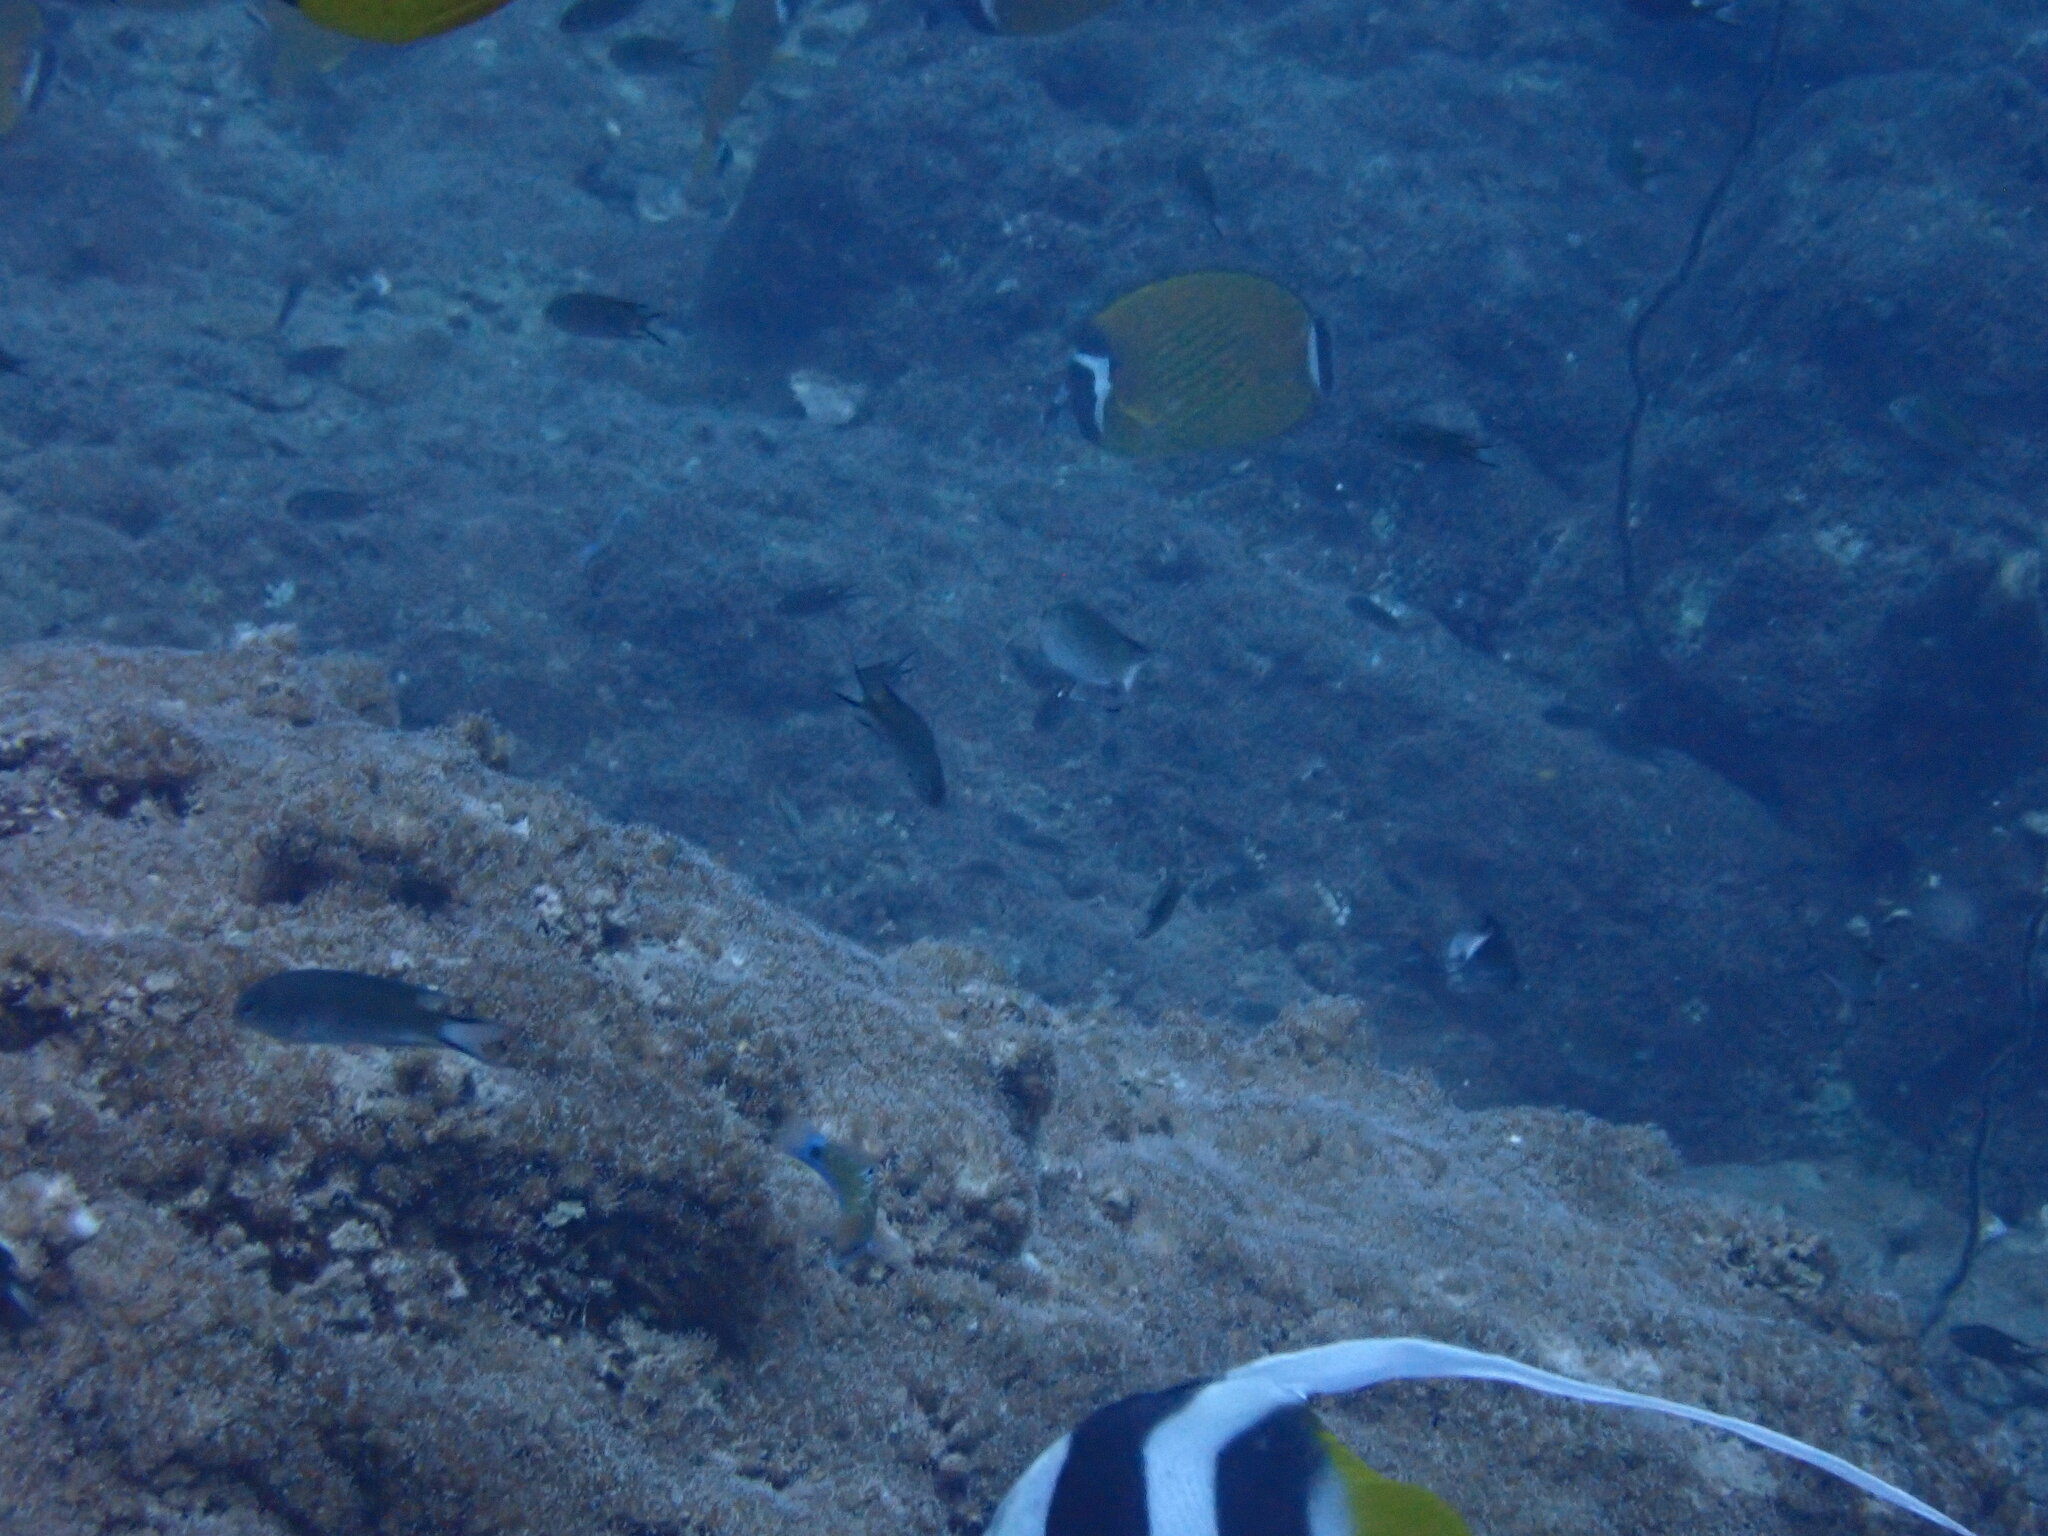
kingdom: Animalia
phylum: Chordata
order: Perciformes
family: Chaetodontidae
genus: Heniochus
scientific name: Heniochus acuminatus
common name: Pennant coralfish
